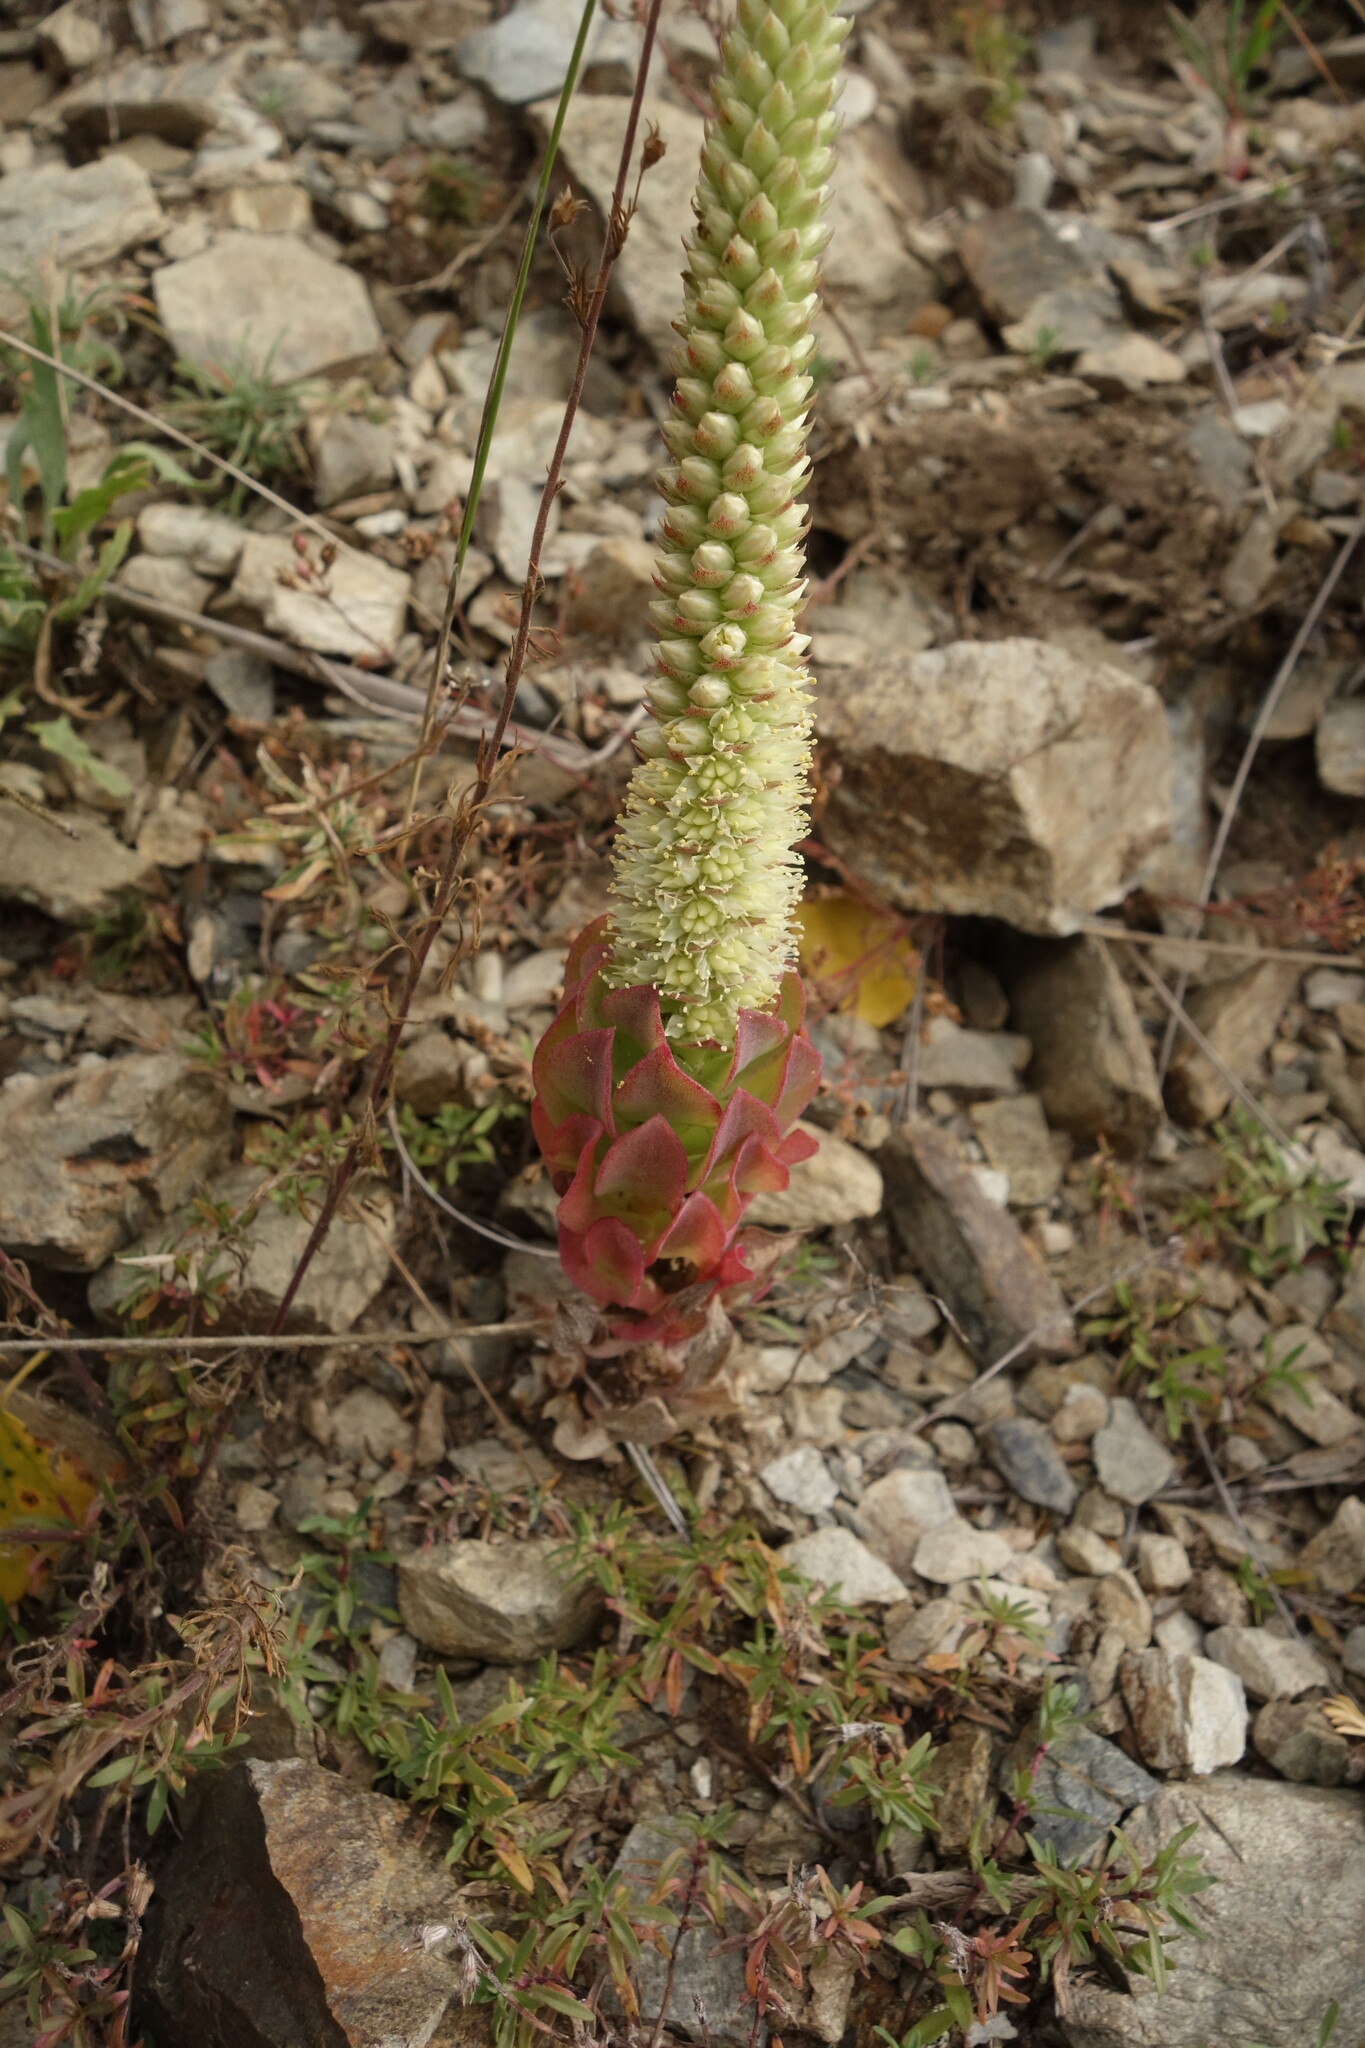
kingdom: Plantae
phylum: Tracheophyta
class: Magnoliopsida
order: Saxifragales
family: Crassulaceae
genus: Orostachys
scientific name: Orostachys malacophylla
